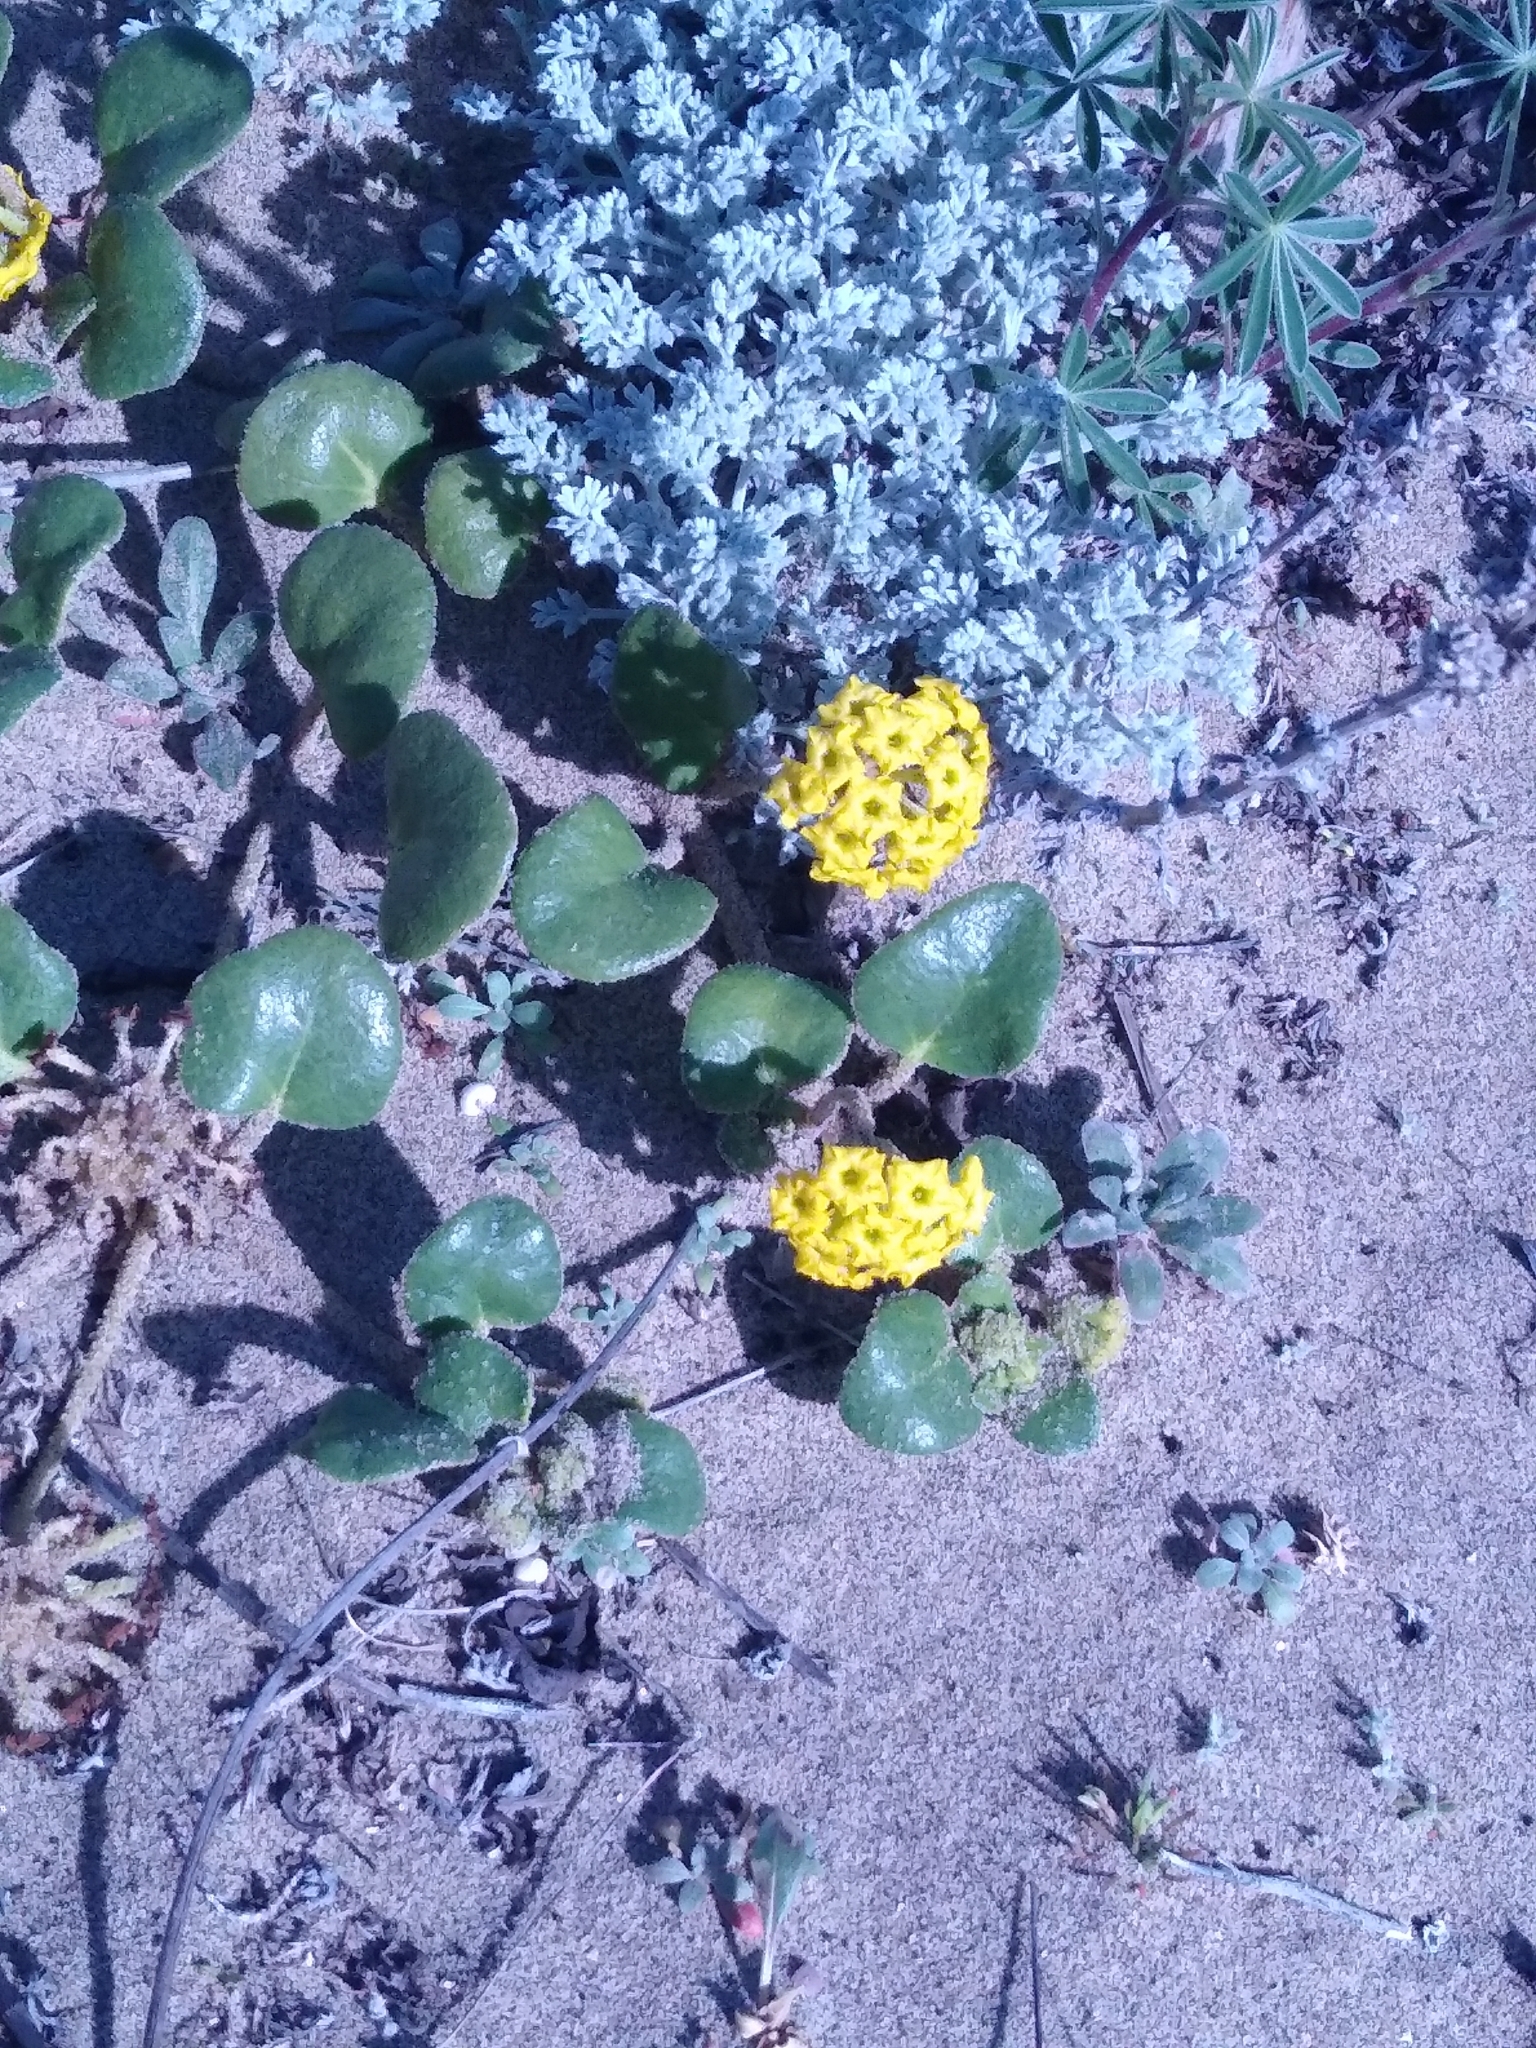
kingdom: Plantae
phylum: Tracheophyta
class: Magnoliopsida
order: Caryophyllales
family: Nyctaginaceae
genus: Abronia
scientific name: Abronia latifolia
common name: Yellow sand-verbena
